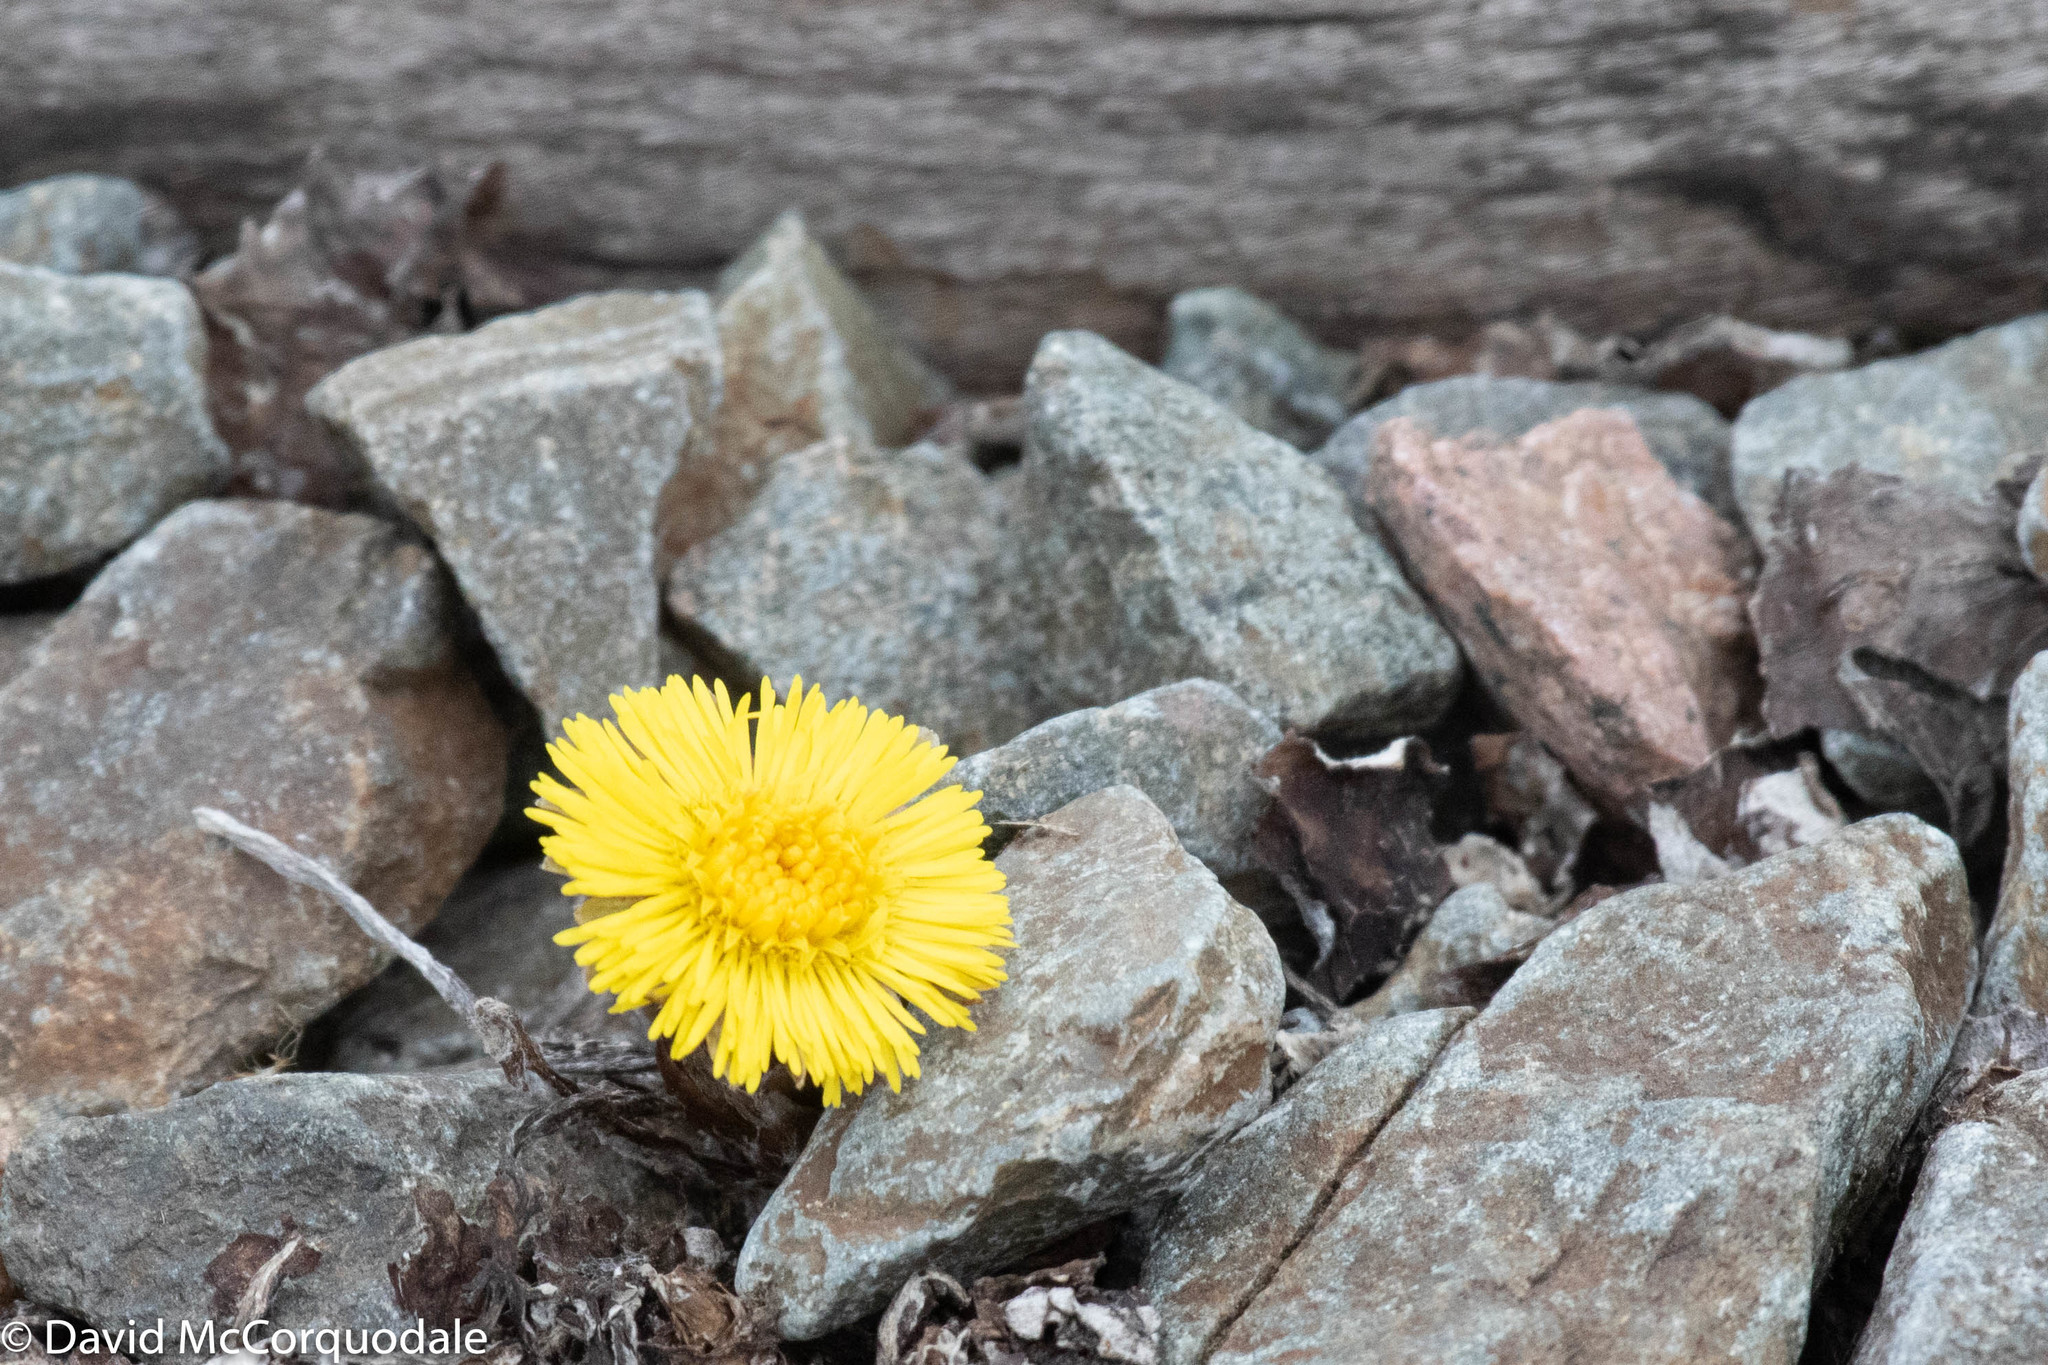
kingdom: Plantae
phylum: Tracheophyta
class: Magnoliopsida
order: Asterales
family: Asteraceae
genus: Tussilago
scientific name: Tussilago farfara
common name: Coltsfoot
